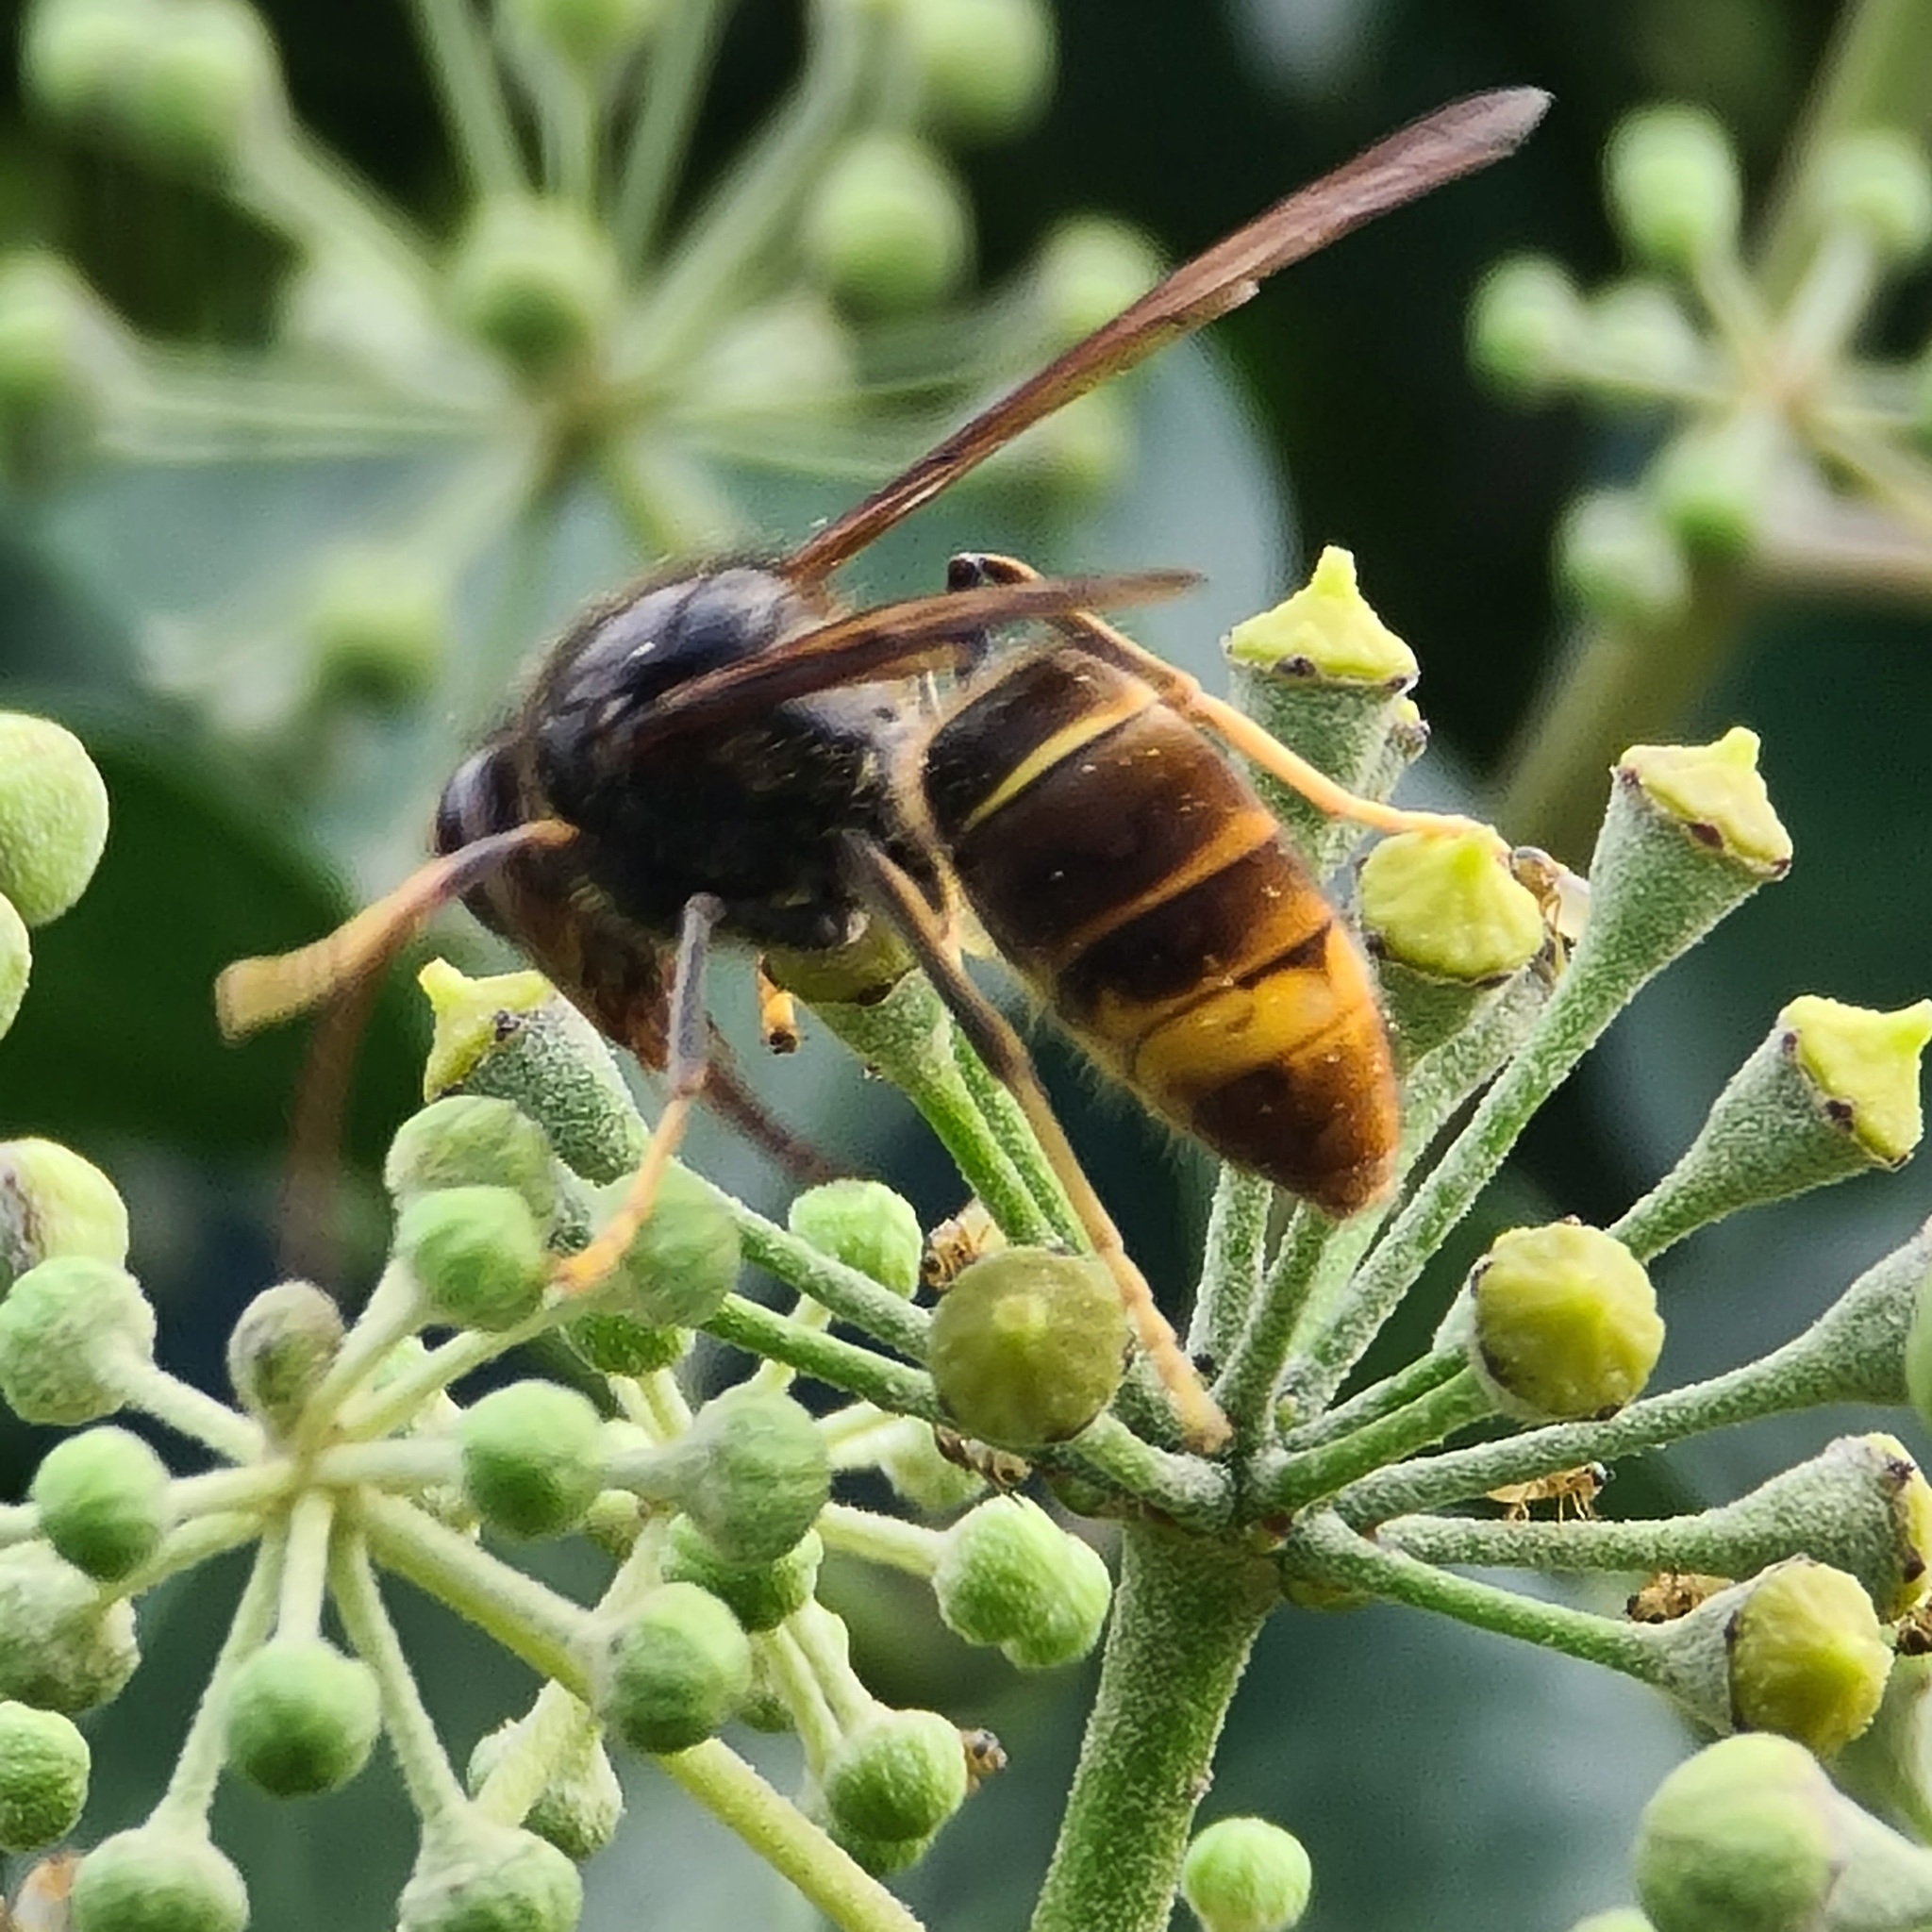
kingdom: Animalia
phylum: Arthropoda
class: Insecta
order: Hymenoptera
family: Vespidae
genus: Vespa
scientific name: Vespa velutina
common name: Asian hornet
